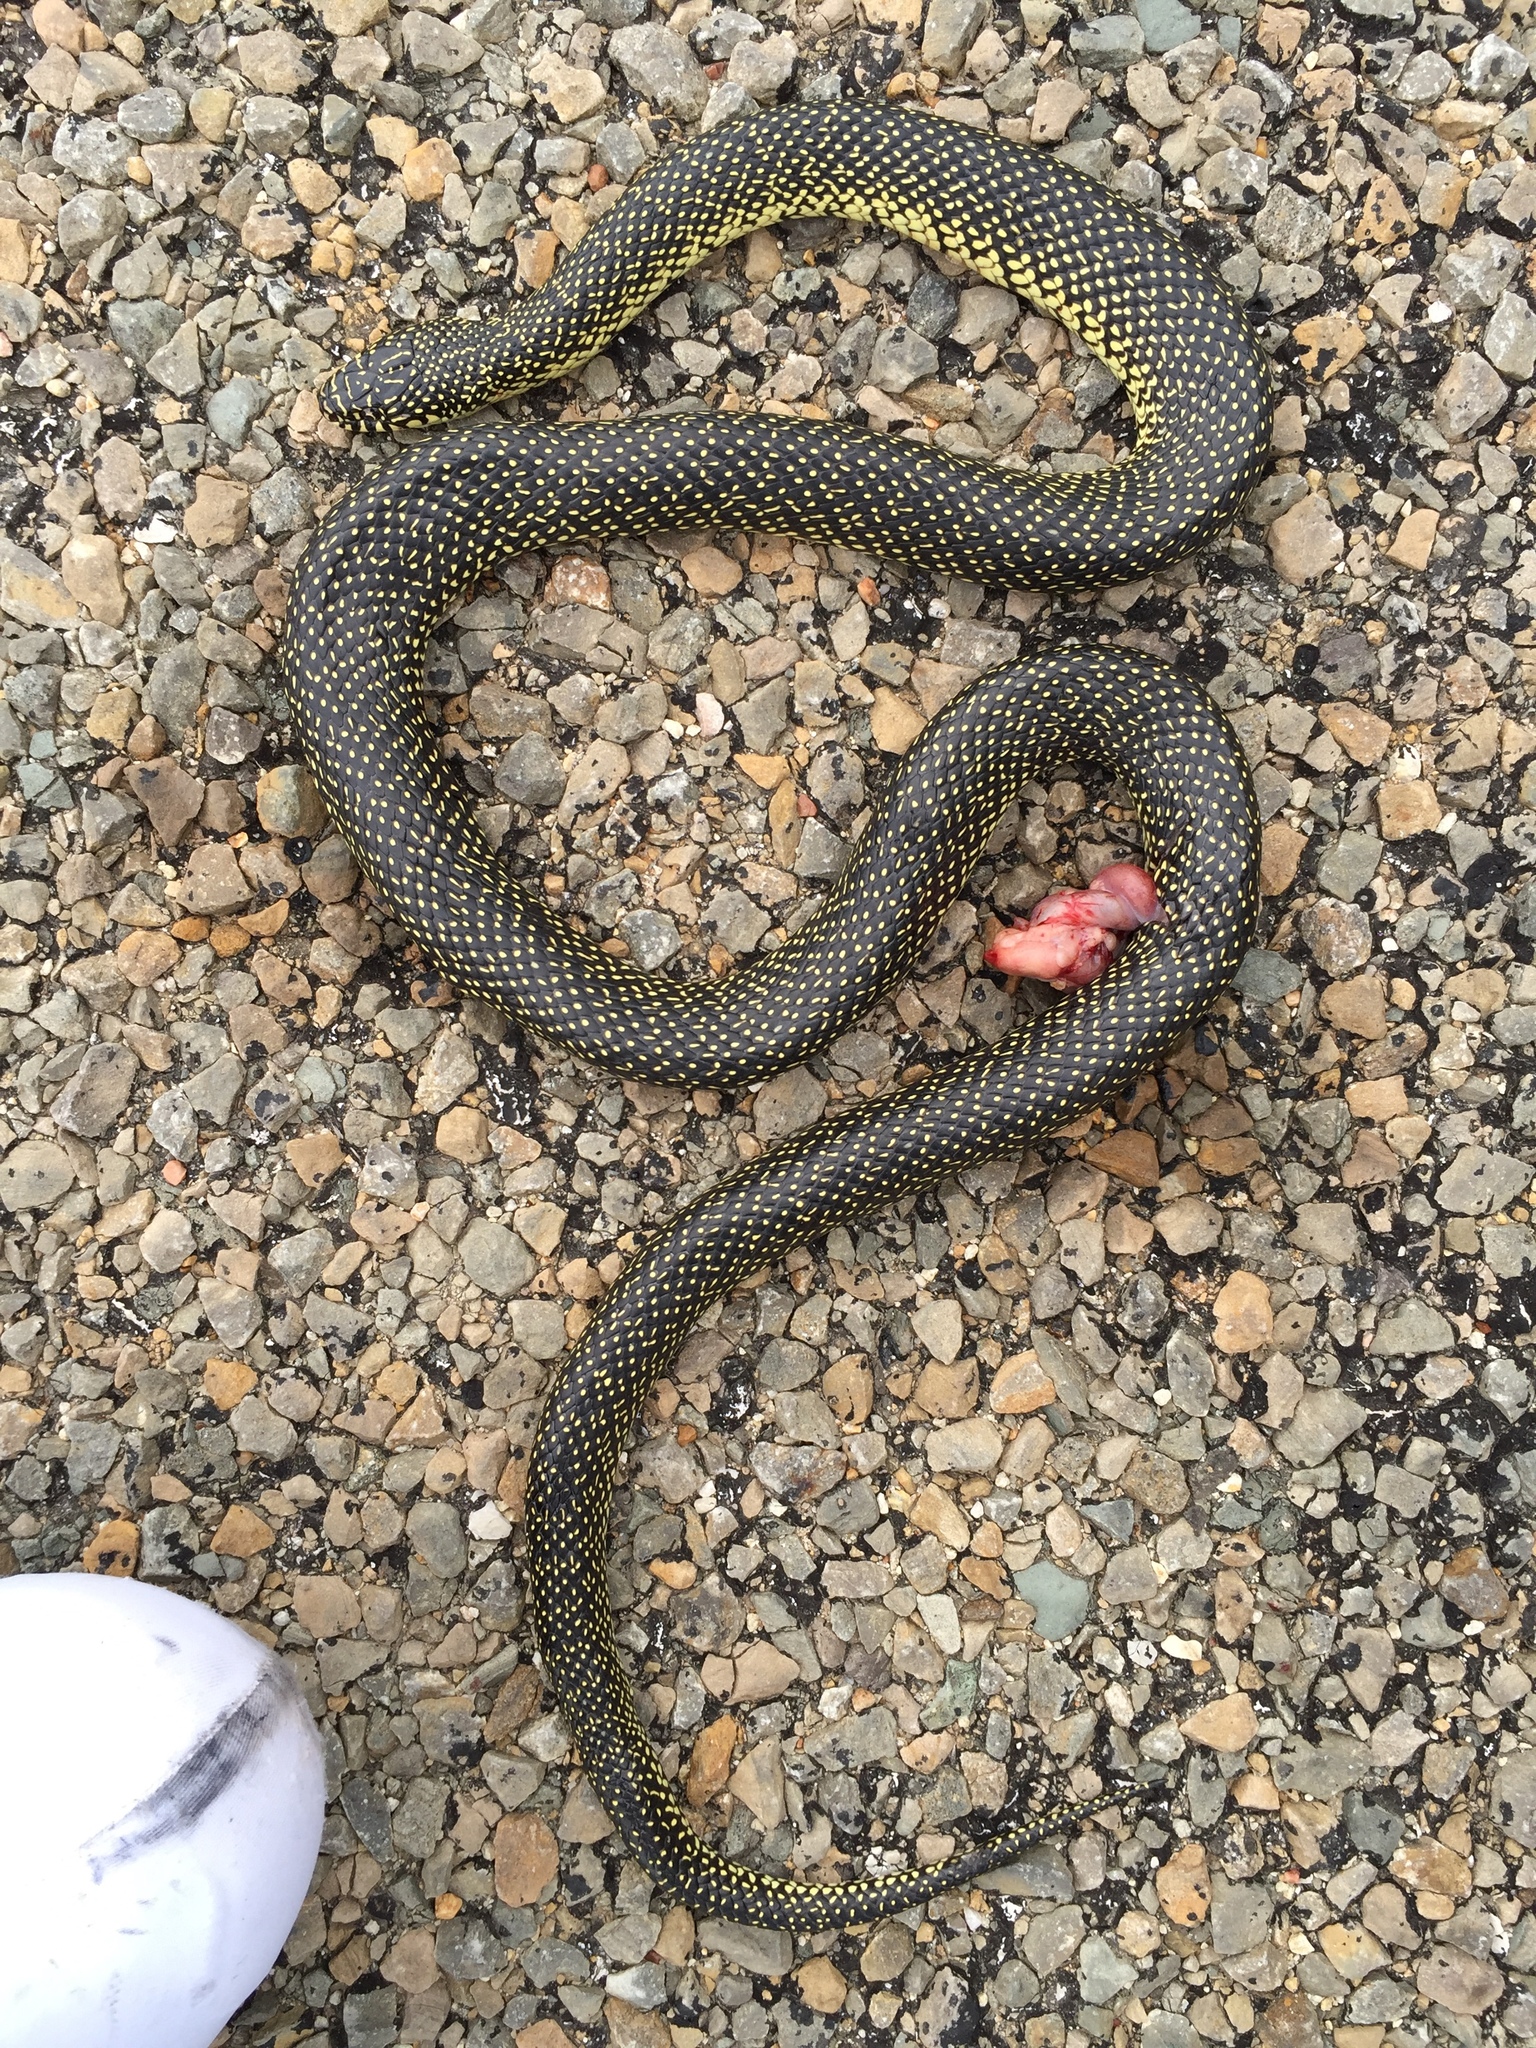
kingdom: Animalia
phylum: Chordata
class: Squamata
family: Colubridae
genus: Lampropeltis
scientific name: Lampropeltis holbrooki
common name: Speckled kingsnake
